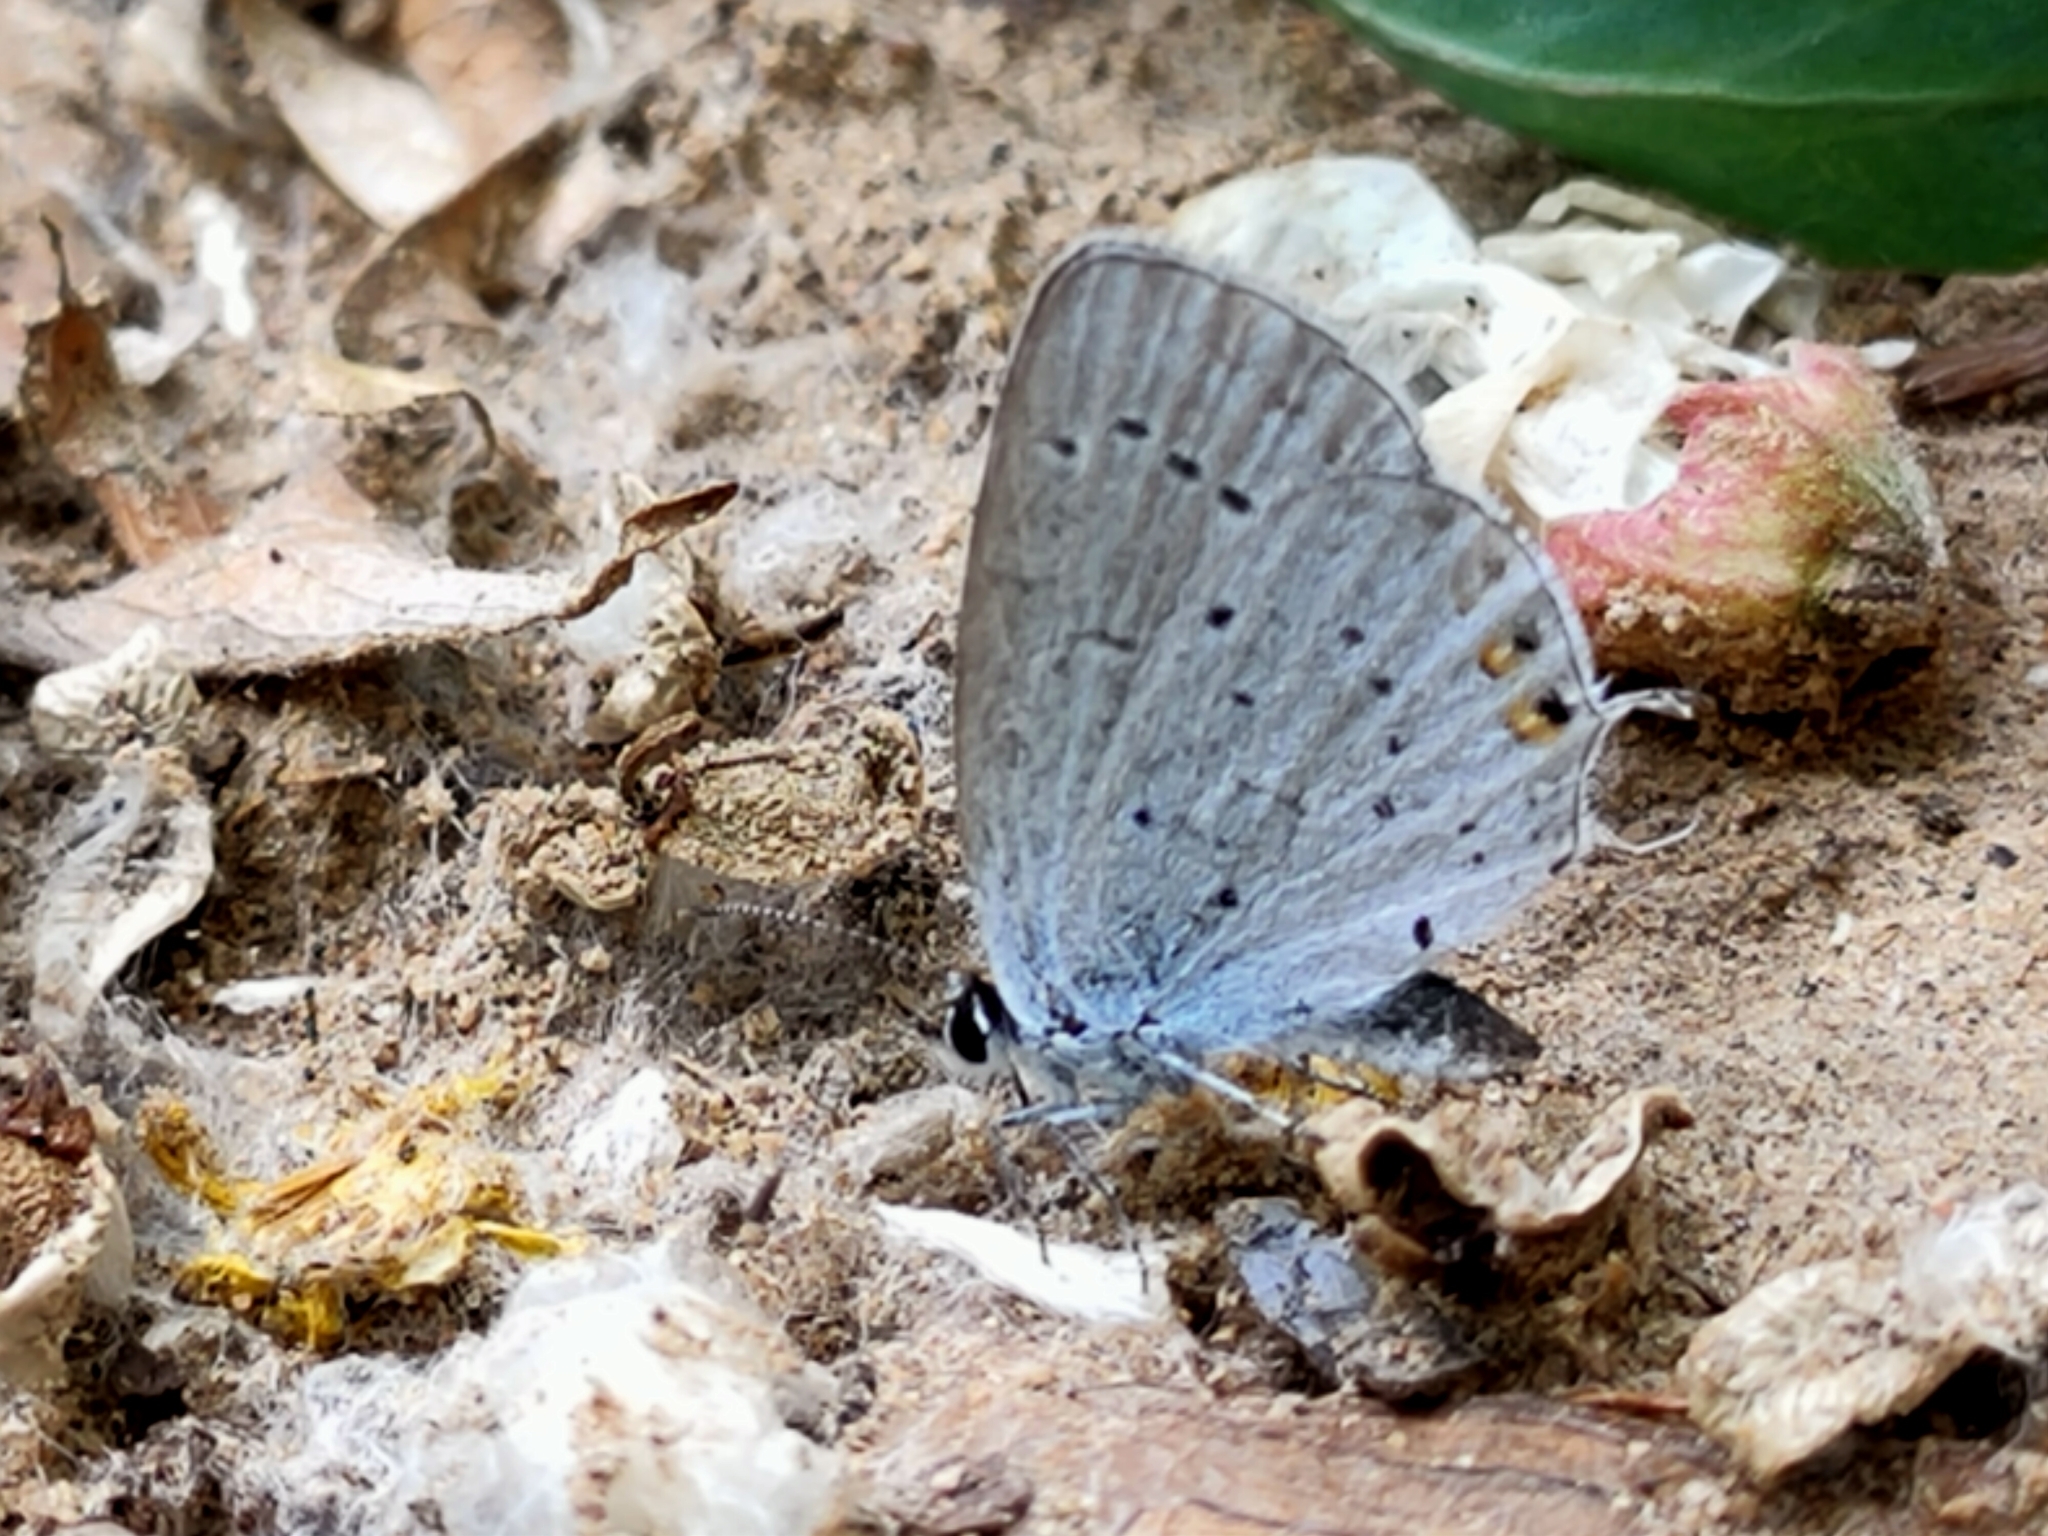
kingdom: Animalia
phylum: Arthropoda
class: Insecta
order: Lepidoptera
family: Lycaenidae
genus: Elkalyce
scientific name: Elkalyce argiades
